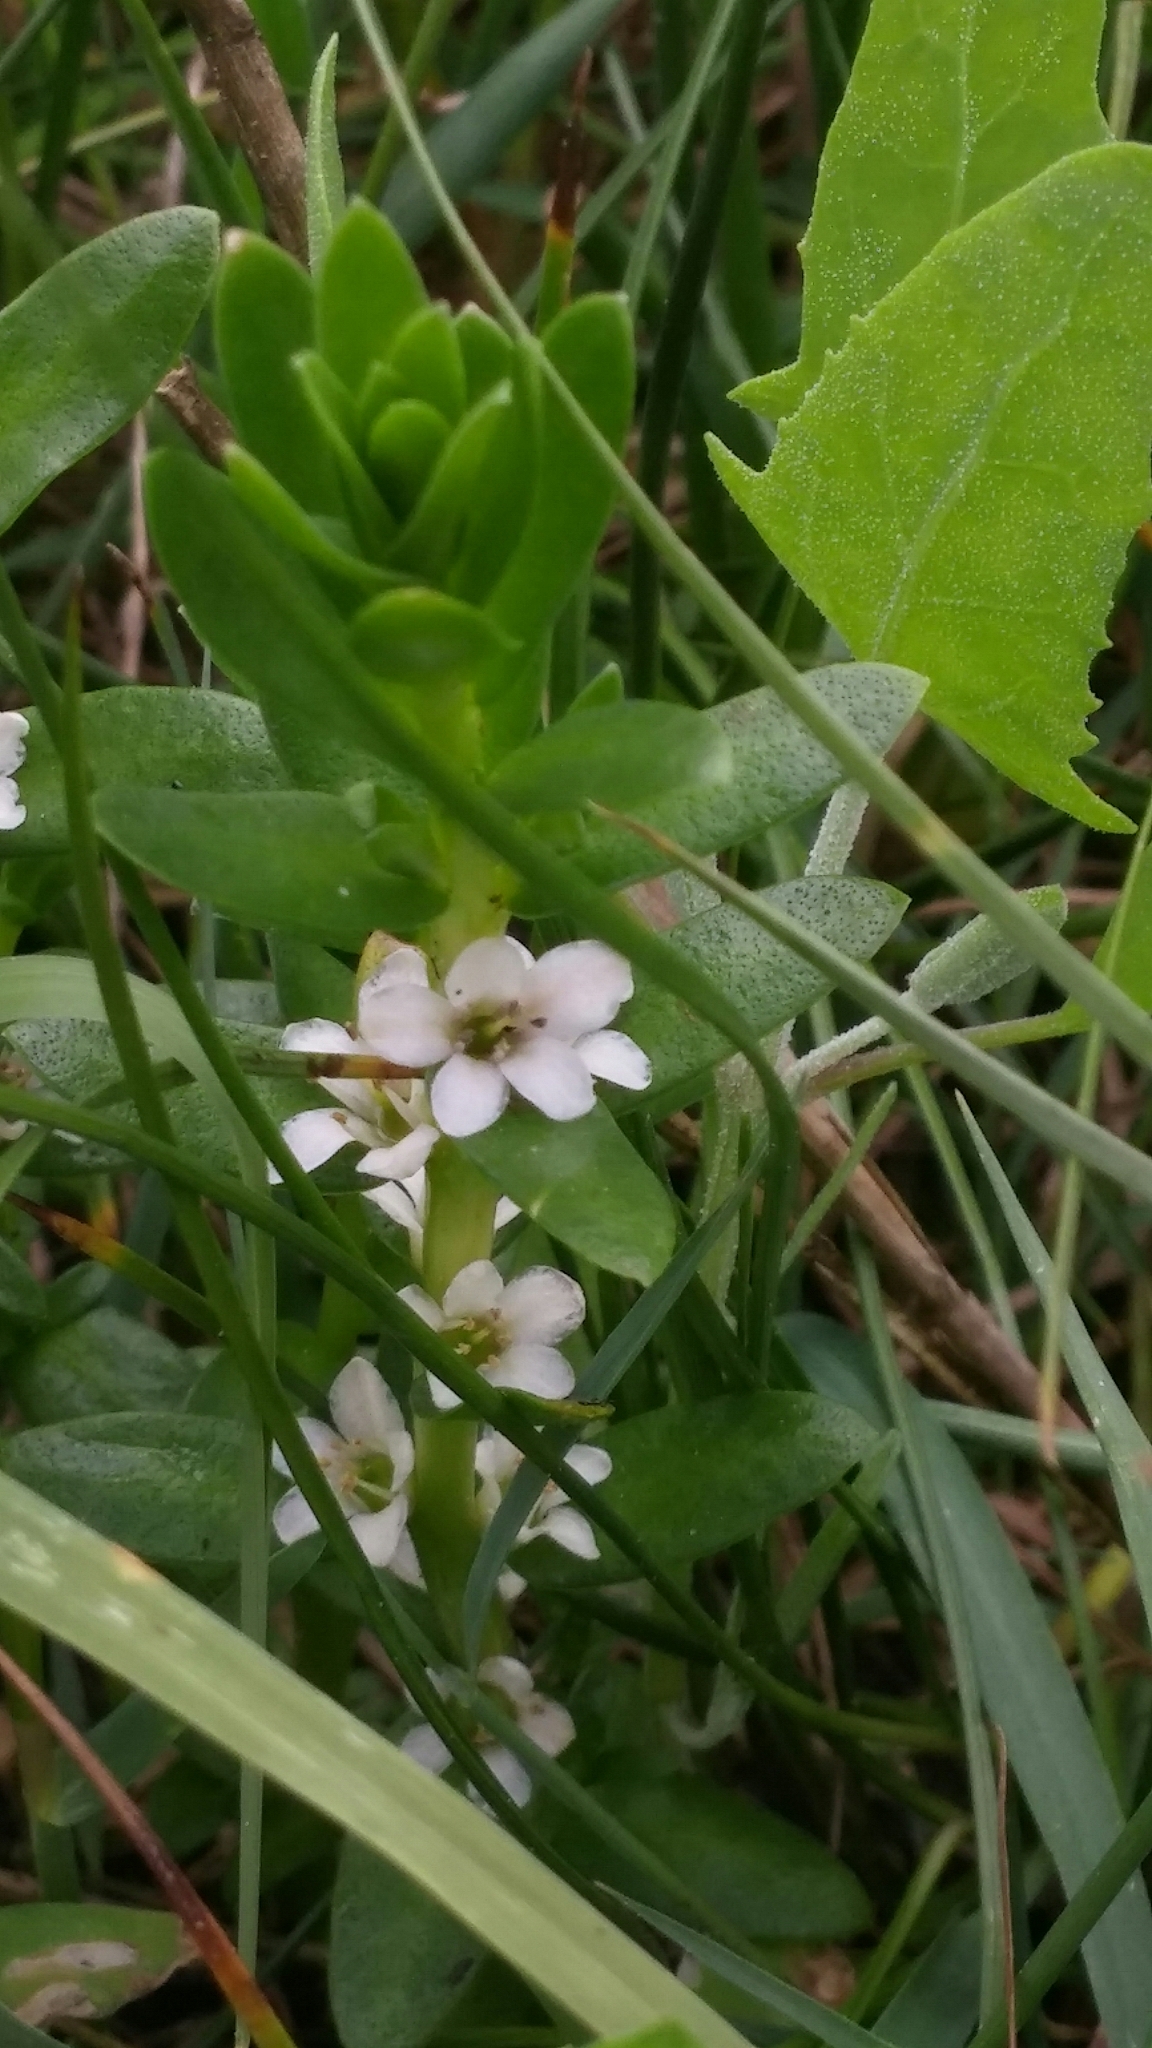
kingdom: Plantae
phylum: Tracheophyta
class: Magnoliopsida
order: Ericales
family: Primulaceae
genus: Lysimachia
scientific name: Lysimachia maritima
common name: Sea milkwort
